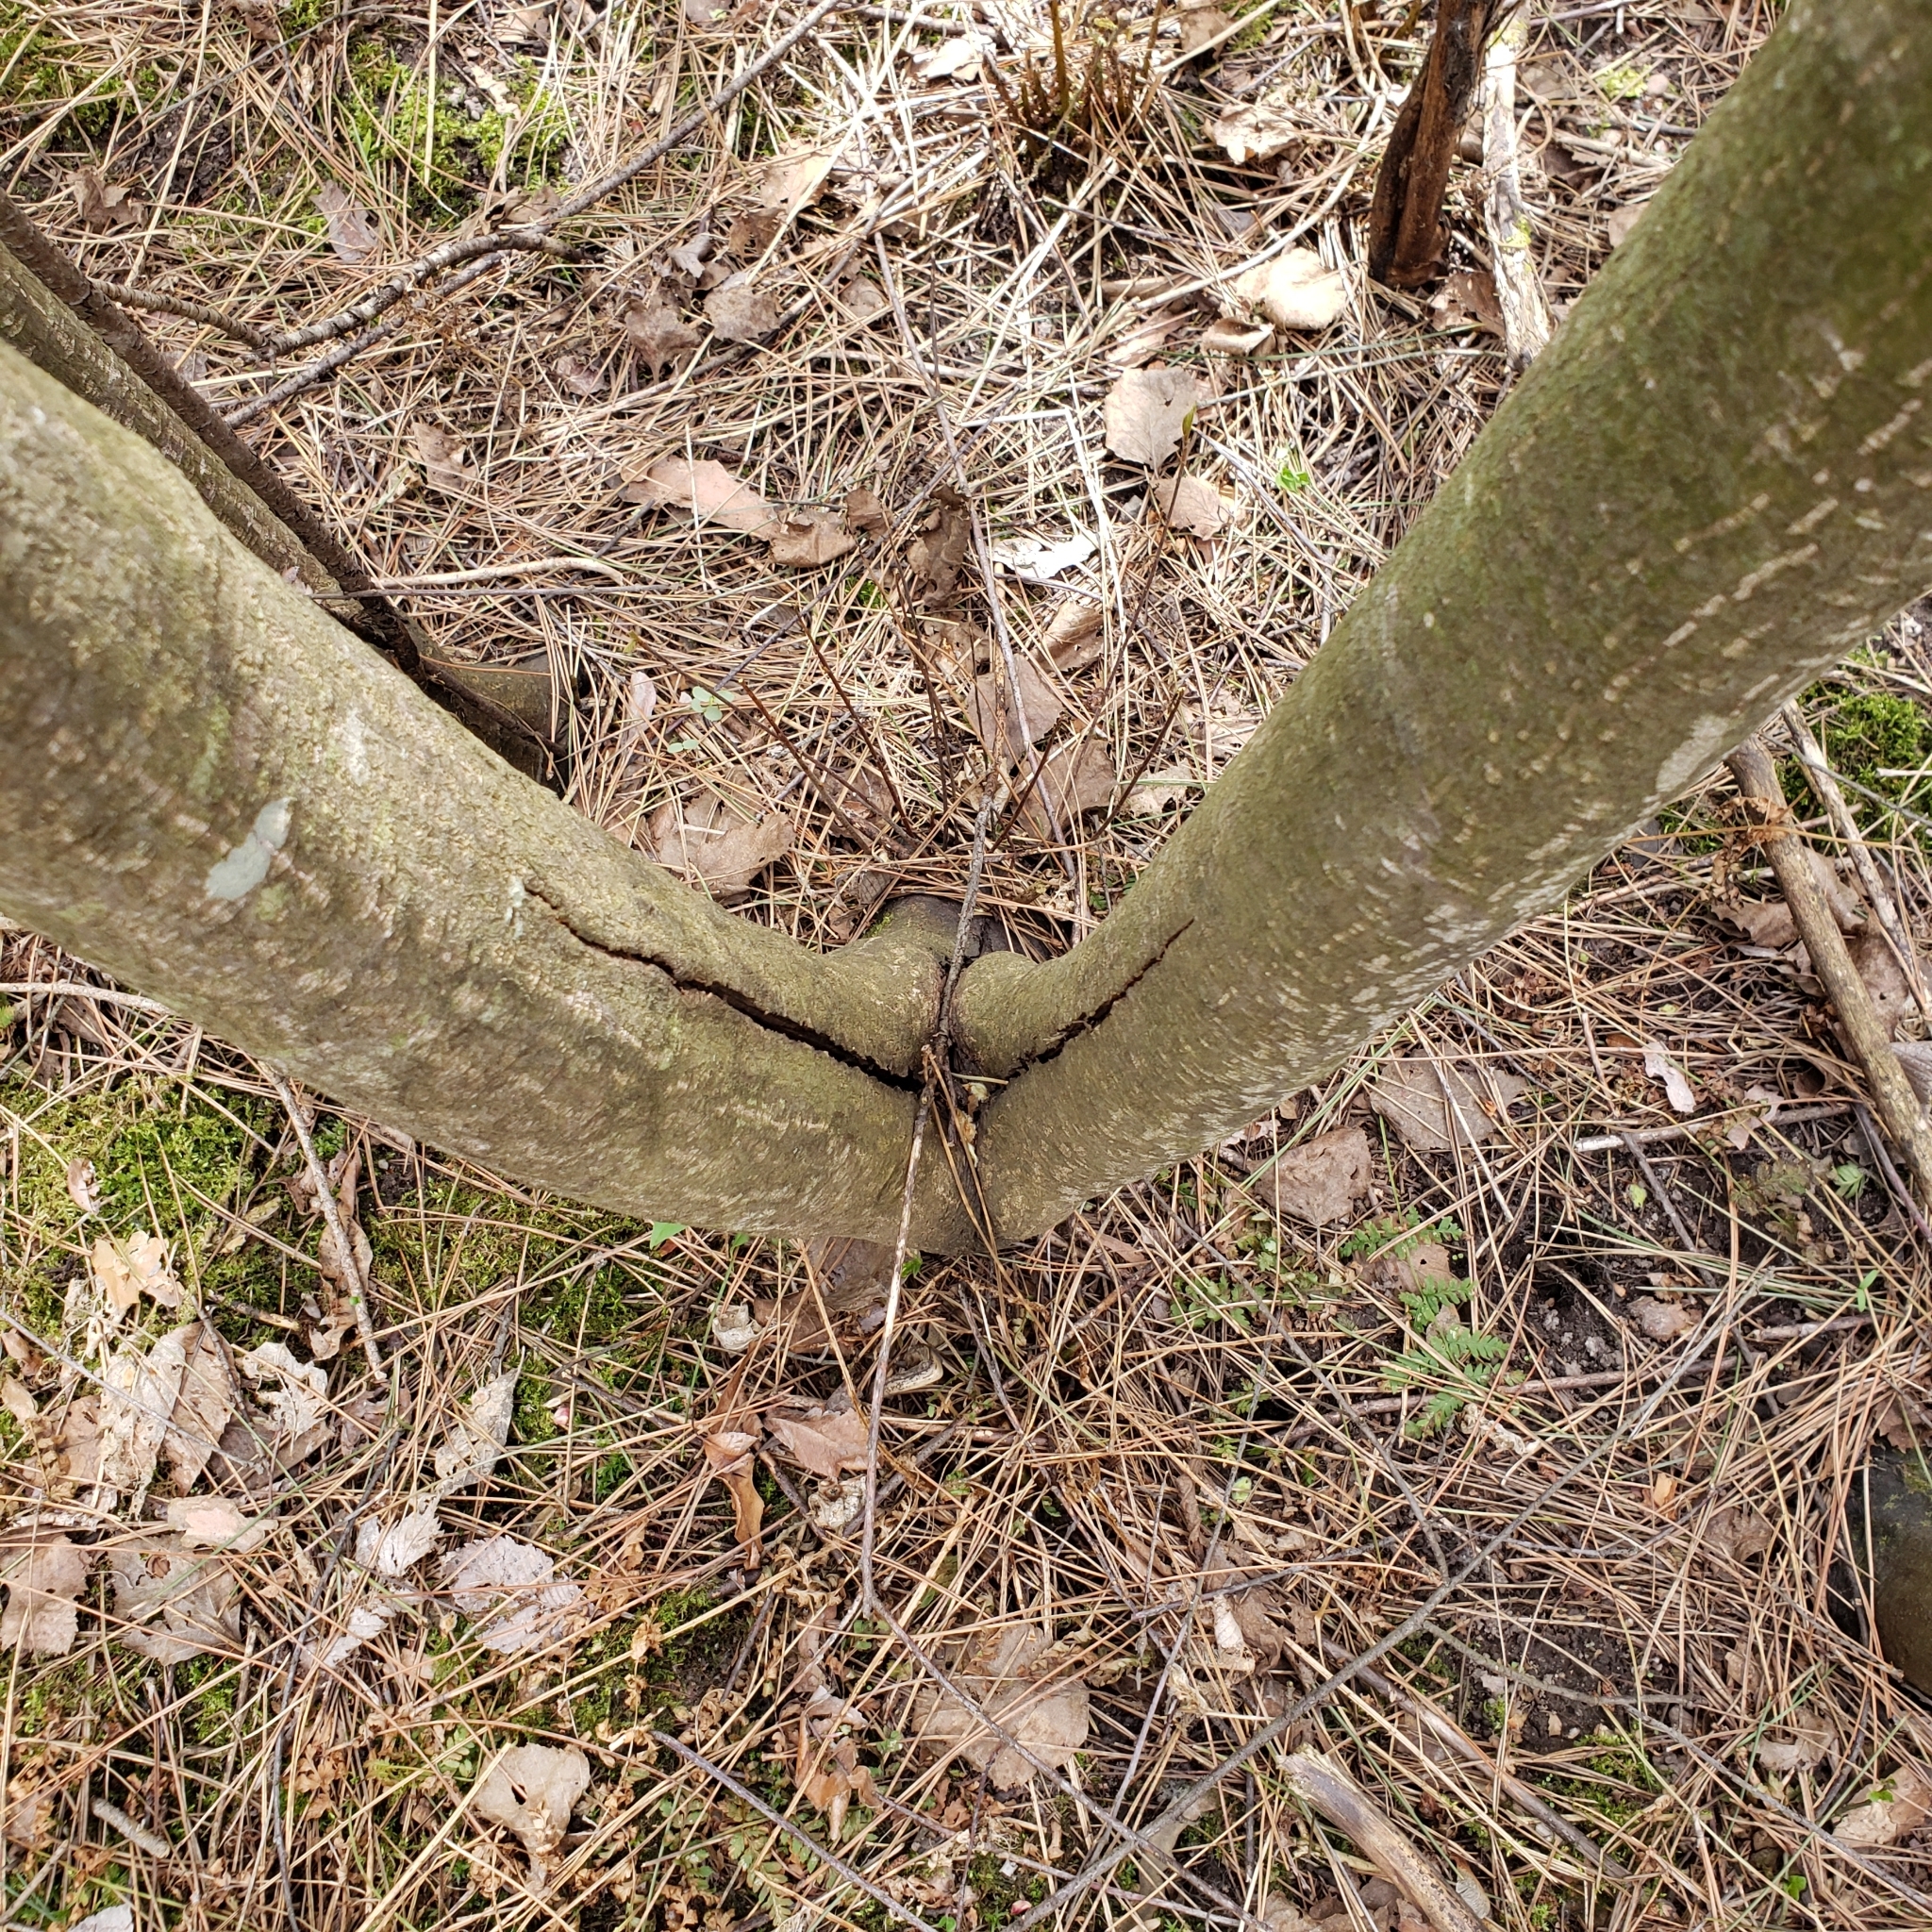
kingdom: Plantae
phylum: Tracheophyta
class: Magnoliopsida
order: Sapindales
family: Sapindaceae
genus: Acer
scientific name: Acer negundo
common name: Ashleaf maple
